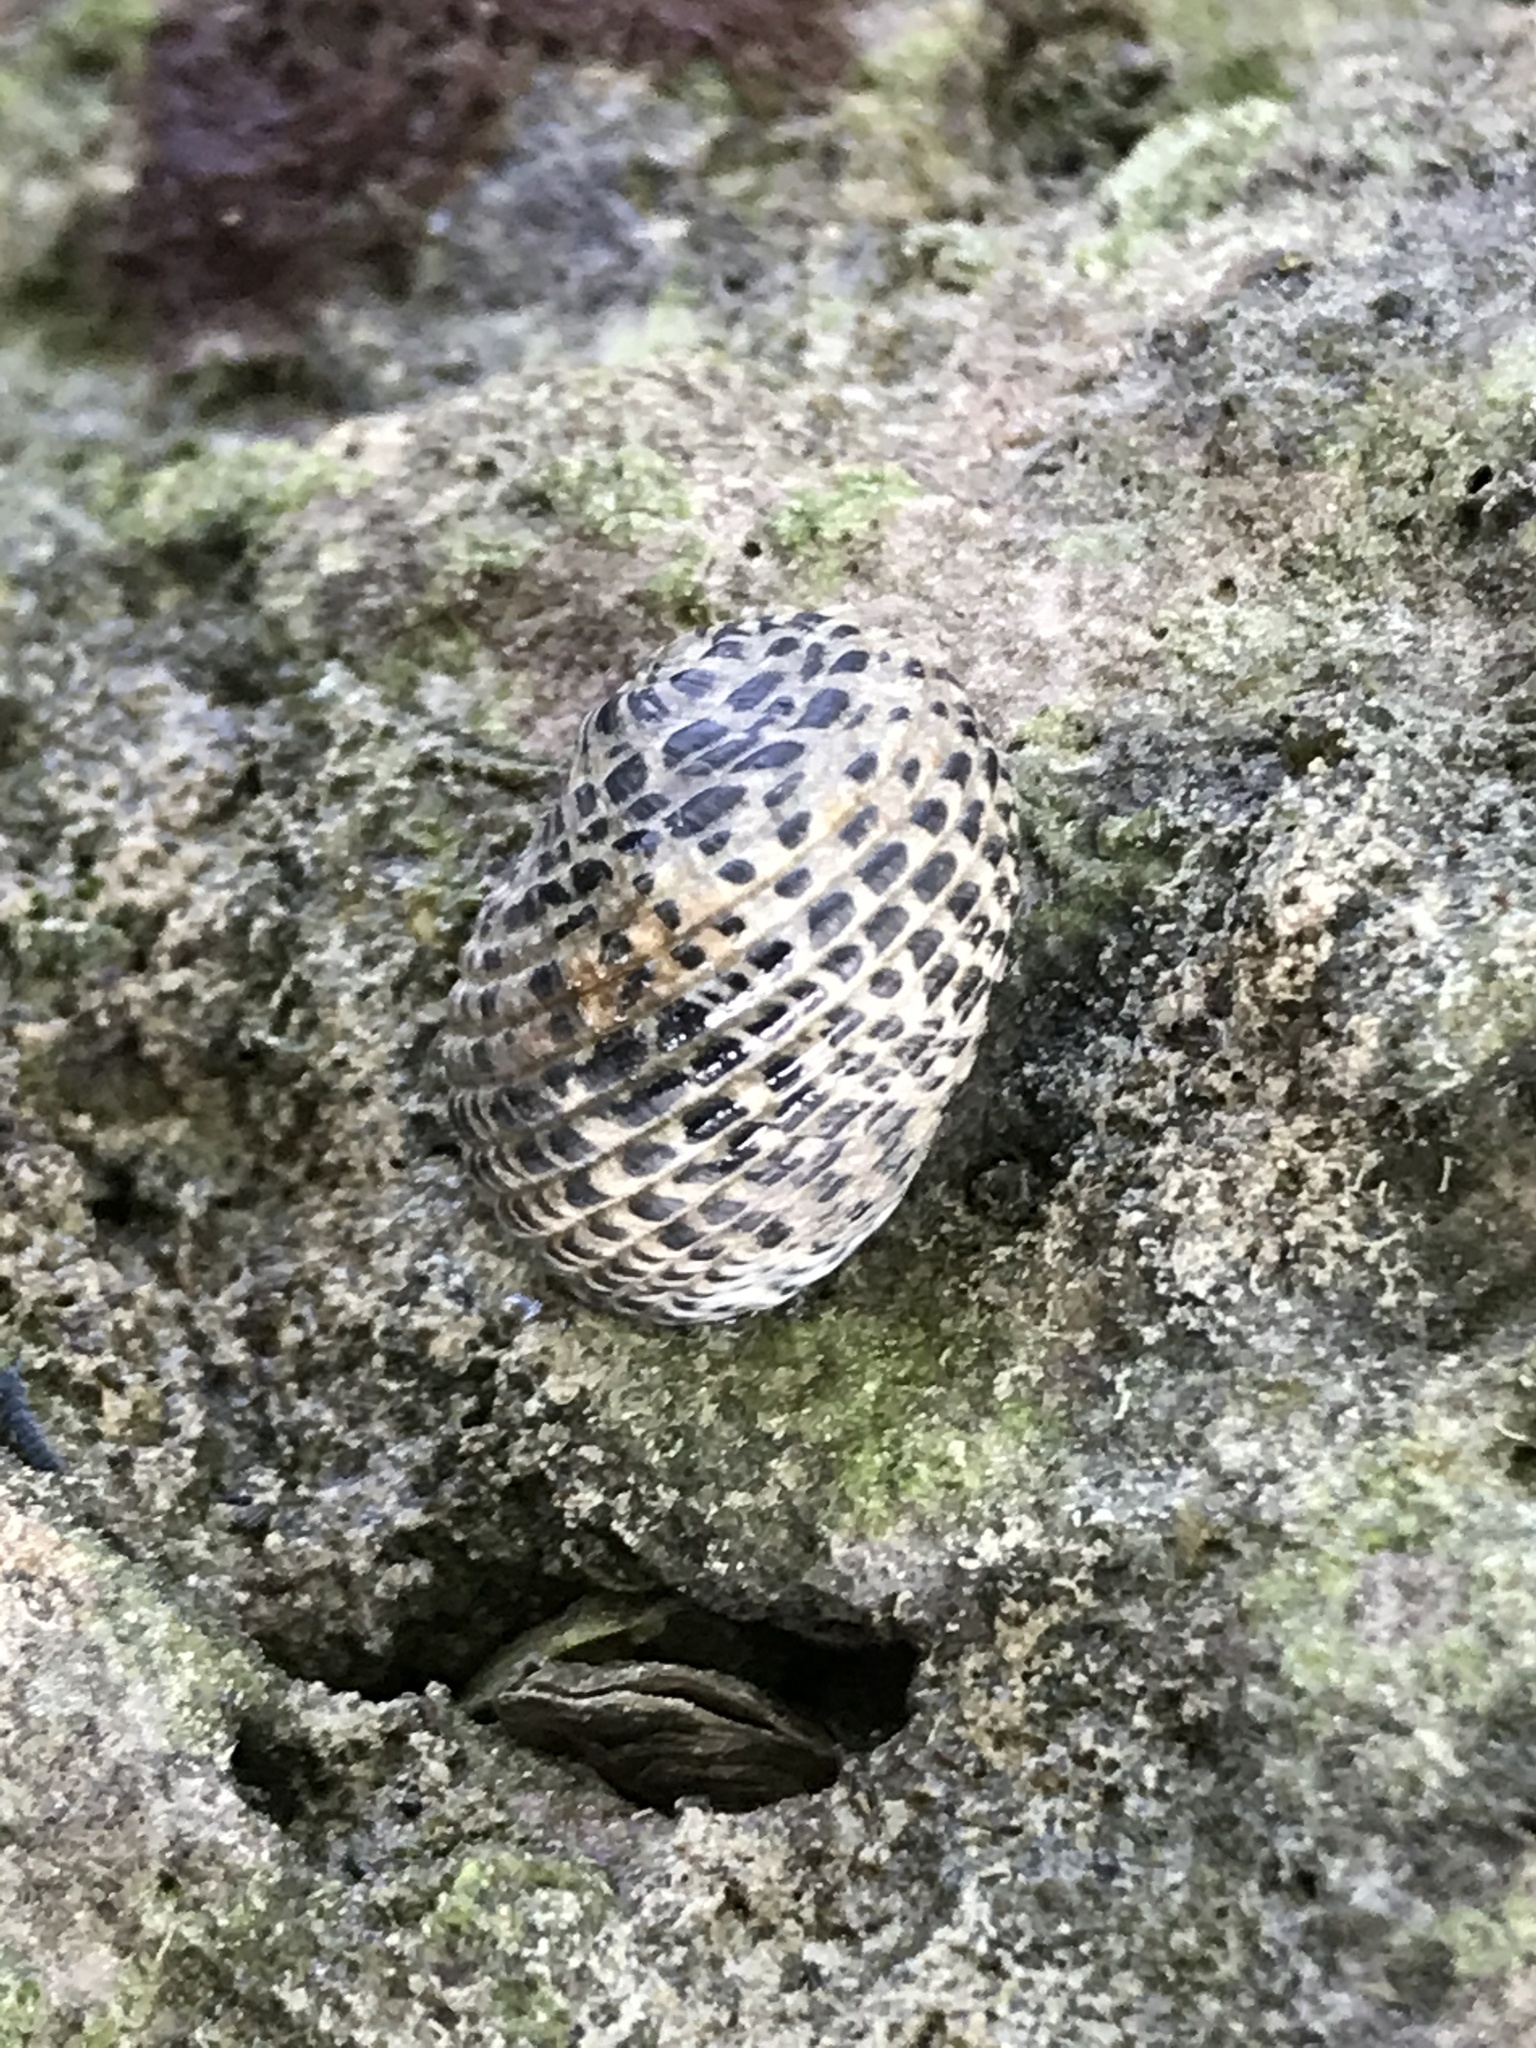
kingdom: Animalia
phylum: Mollusca
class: Gastropoda
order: Cycloneritida
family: Neritidae
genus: Nerita
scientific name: Nerita fulgurans
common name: Antillean nerite
